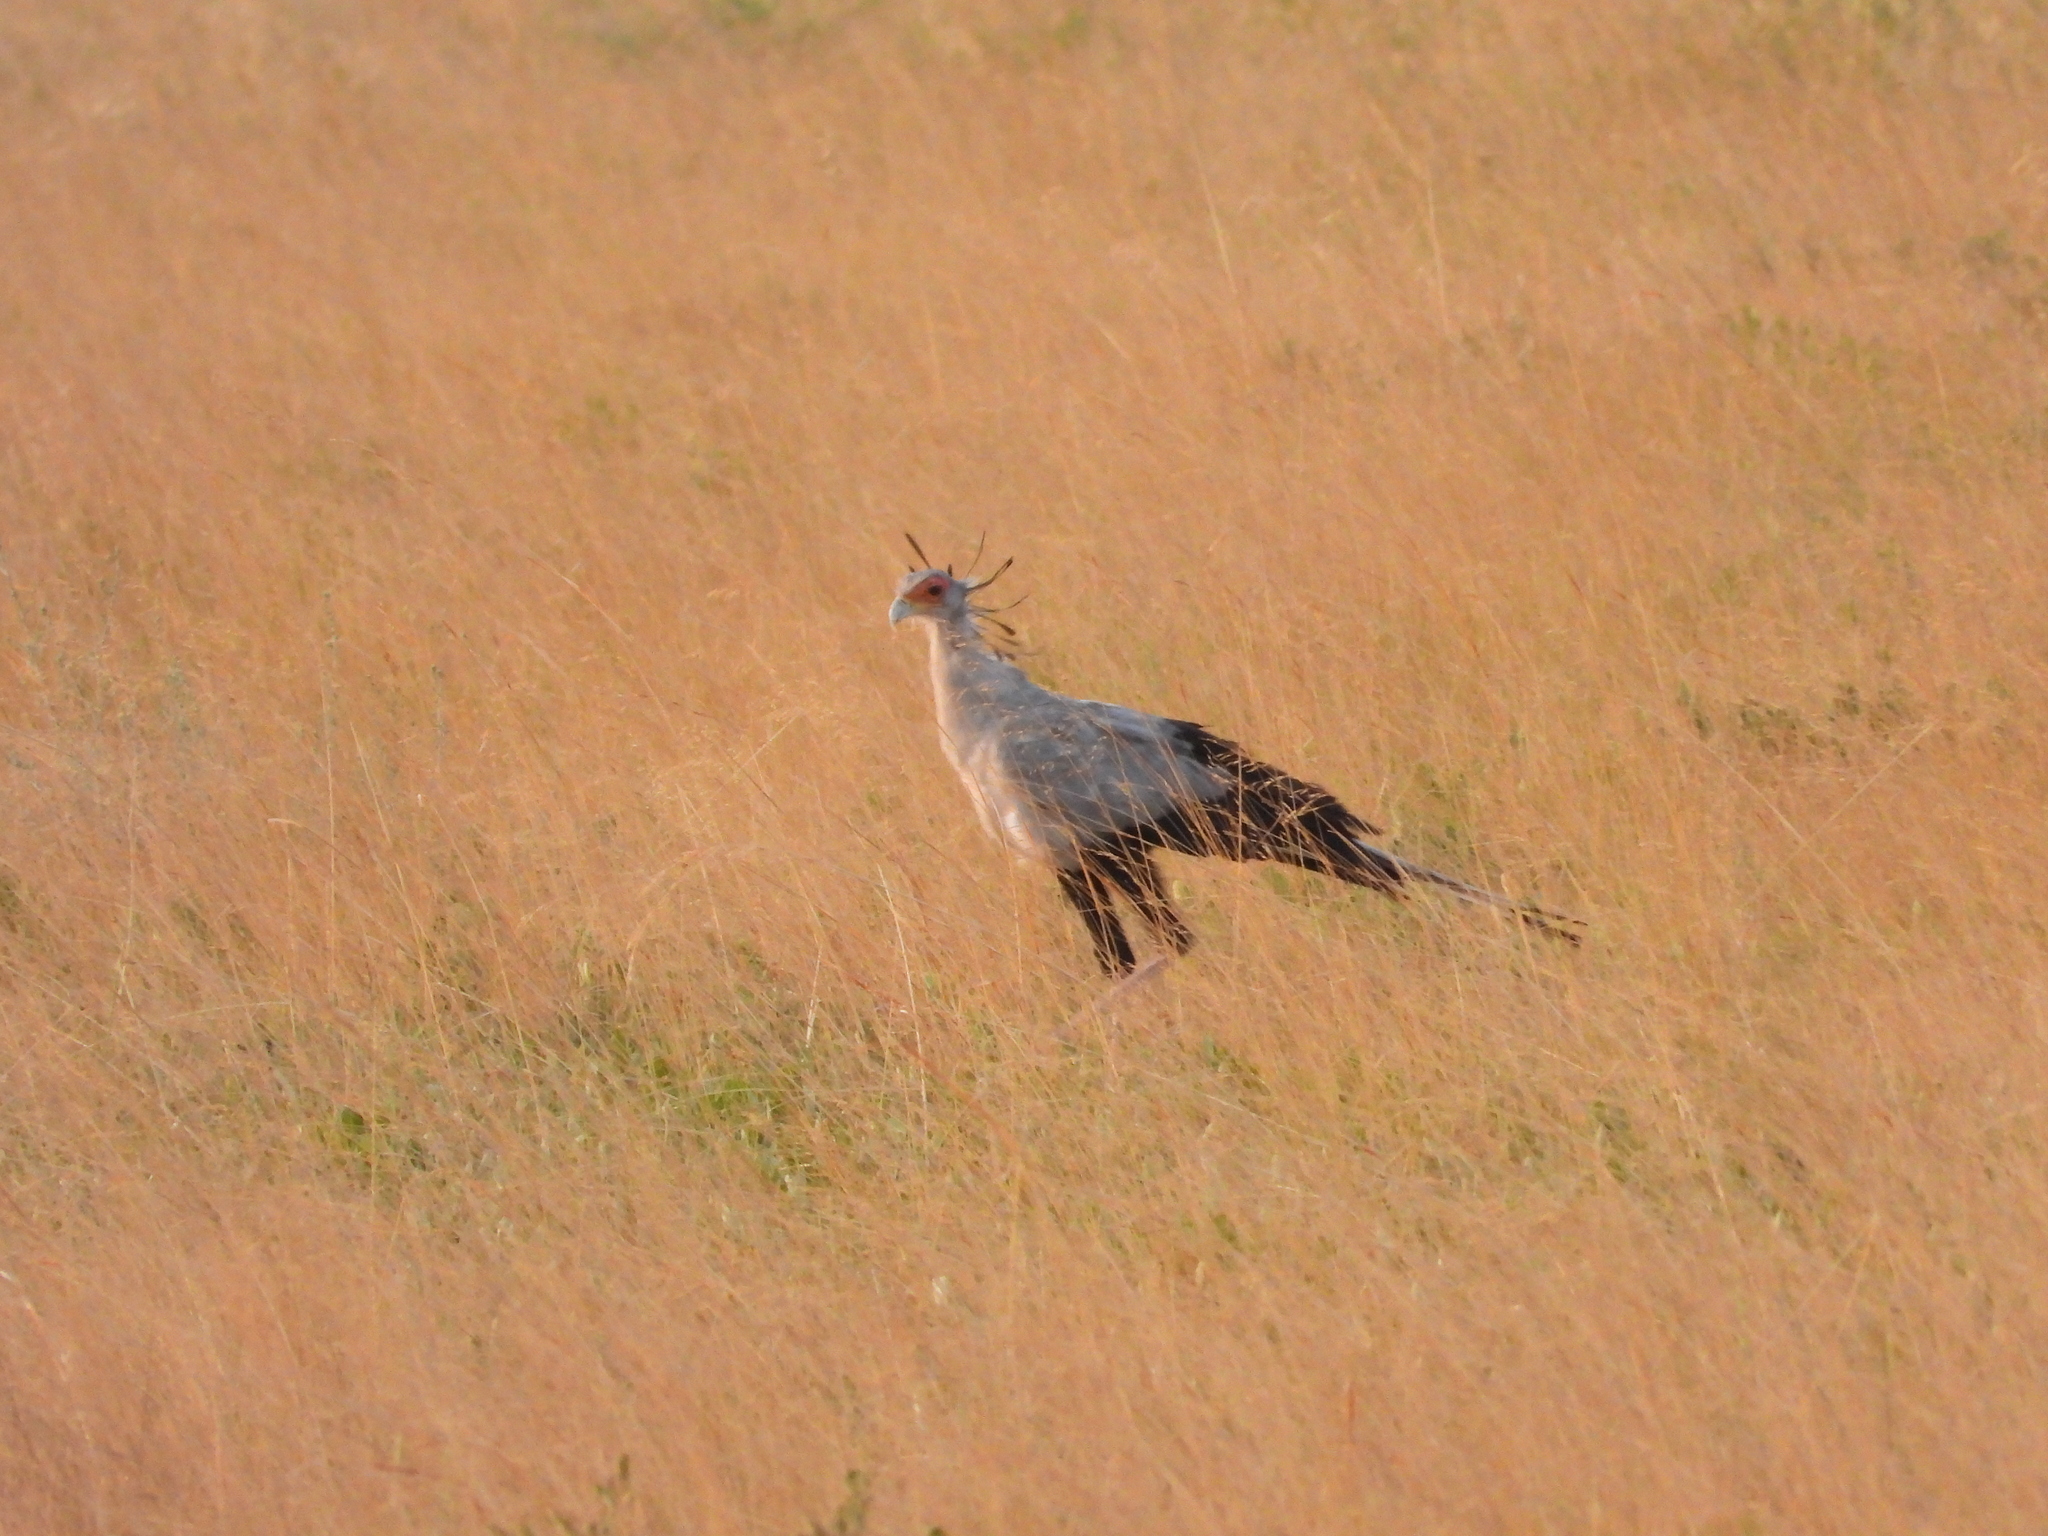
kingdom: Animalia
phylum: Chordata
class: Aves
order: Accipitriformes
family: Sagittariidae
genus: Sagittarius
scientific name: Sagittarius serpentarius
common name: Secretarybird
